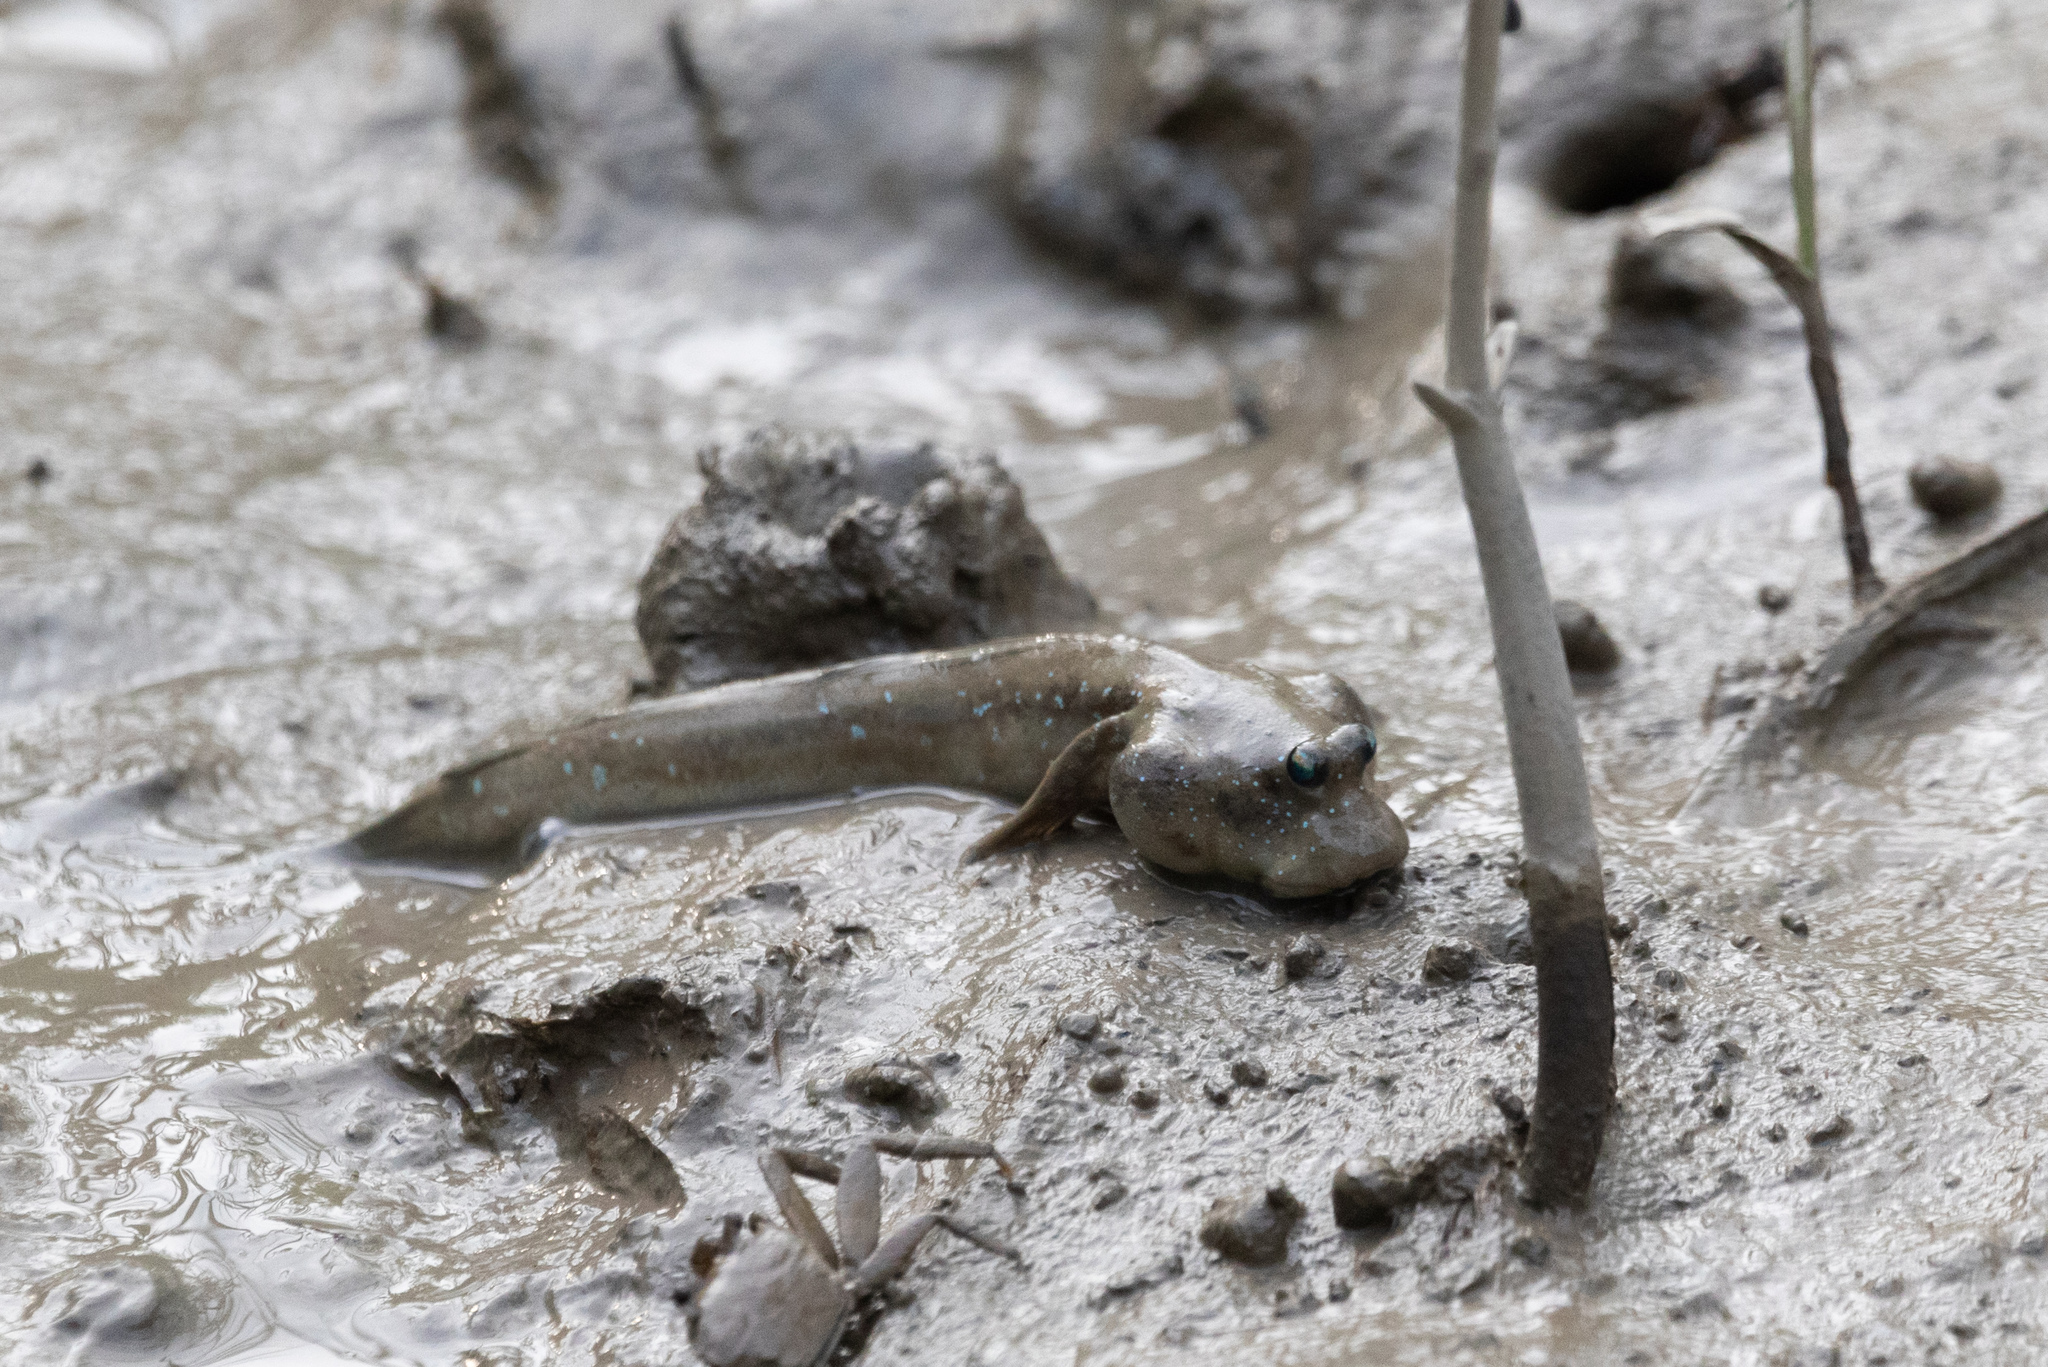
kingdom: Animalia
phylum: Chordata
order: Perciformes
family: Gobiidae
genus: Boleophthalmus
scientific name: Boleophthalmus pectinirostris
